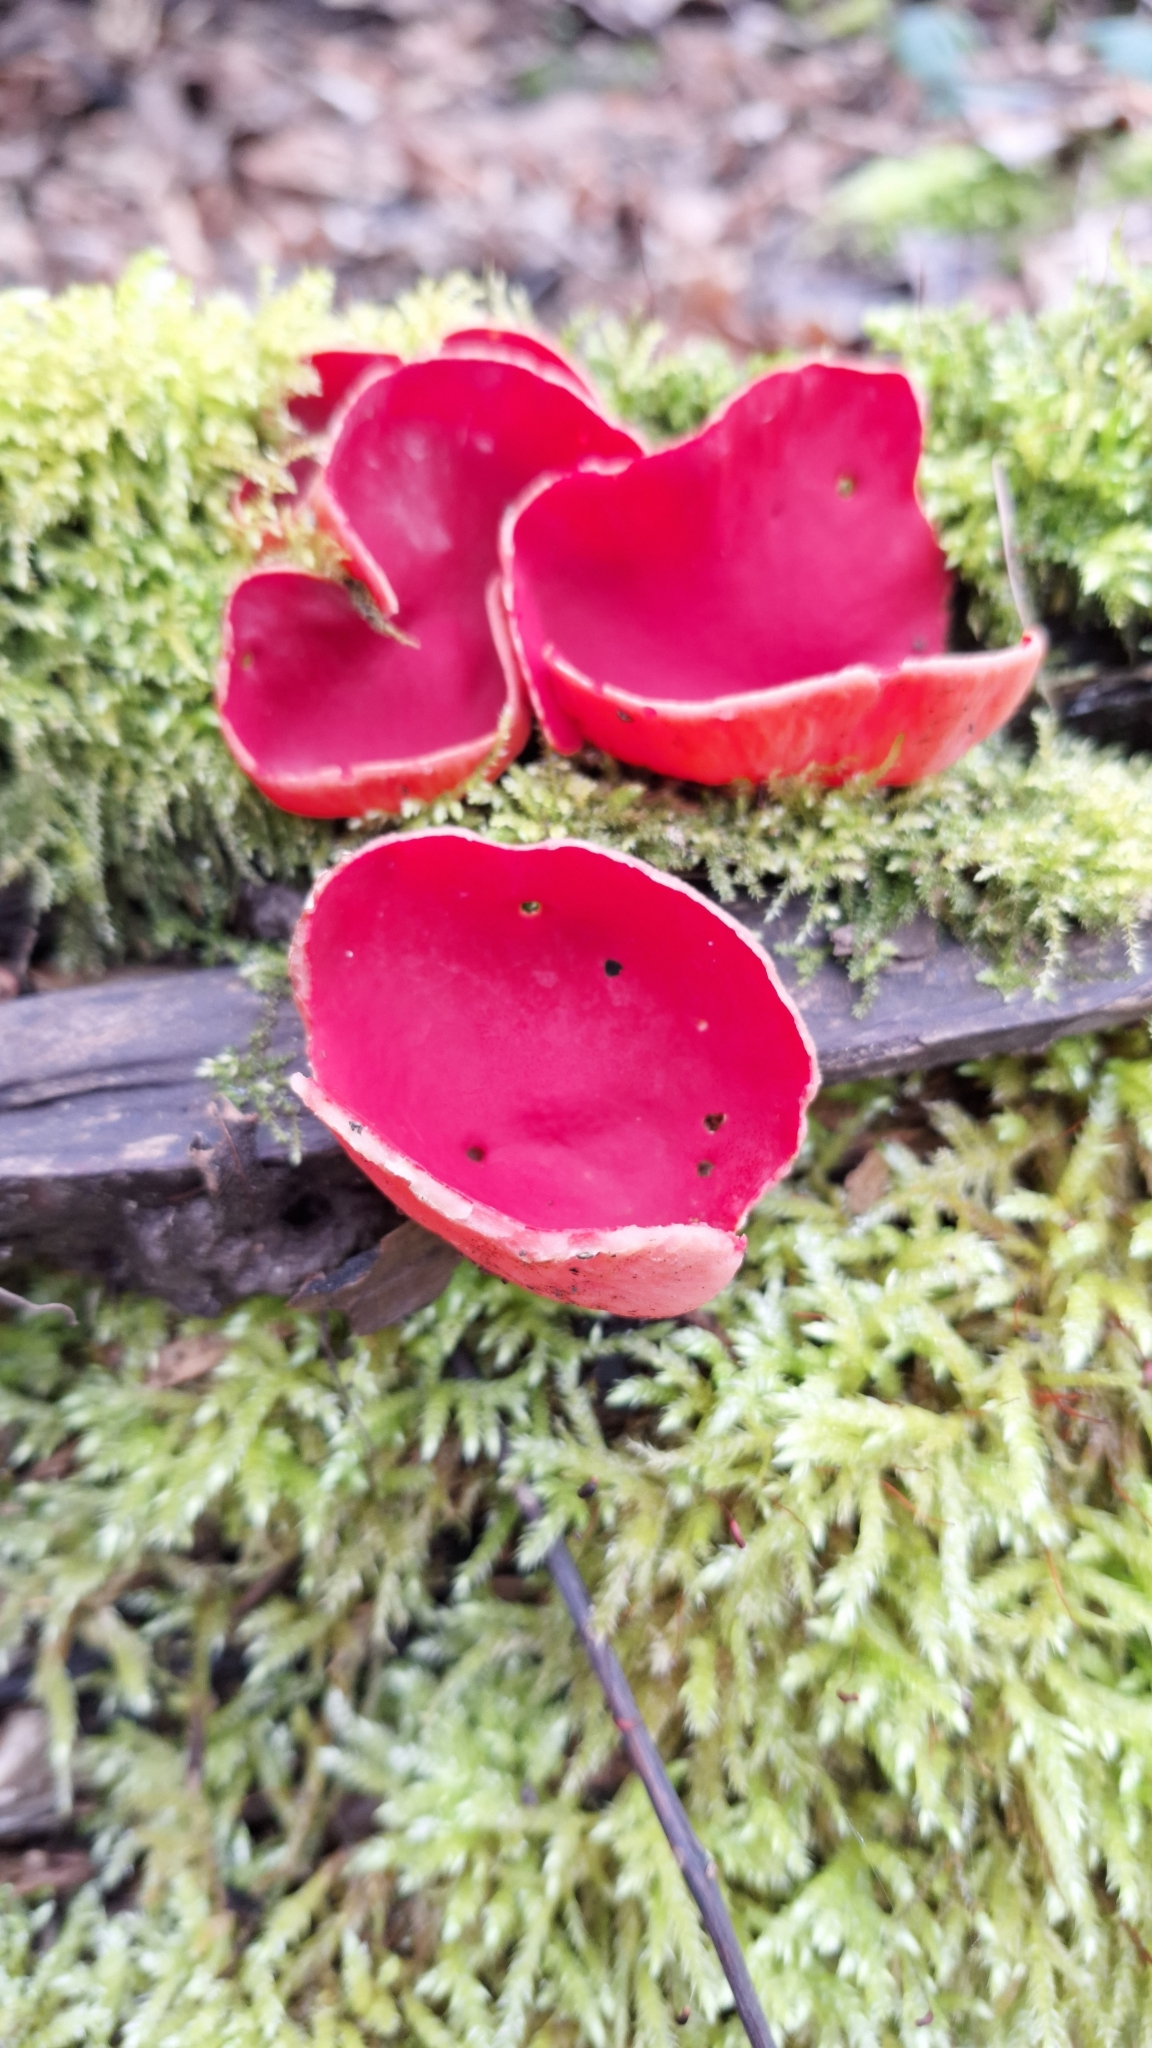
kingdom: Fungi
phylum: Ascomycota
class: Pezizomycetes
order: Pezizales
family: Sarcoscyphaceae
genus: Sarcoscypha
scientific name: Sarcoscypha
